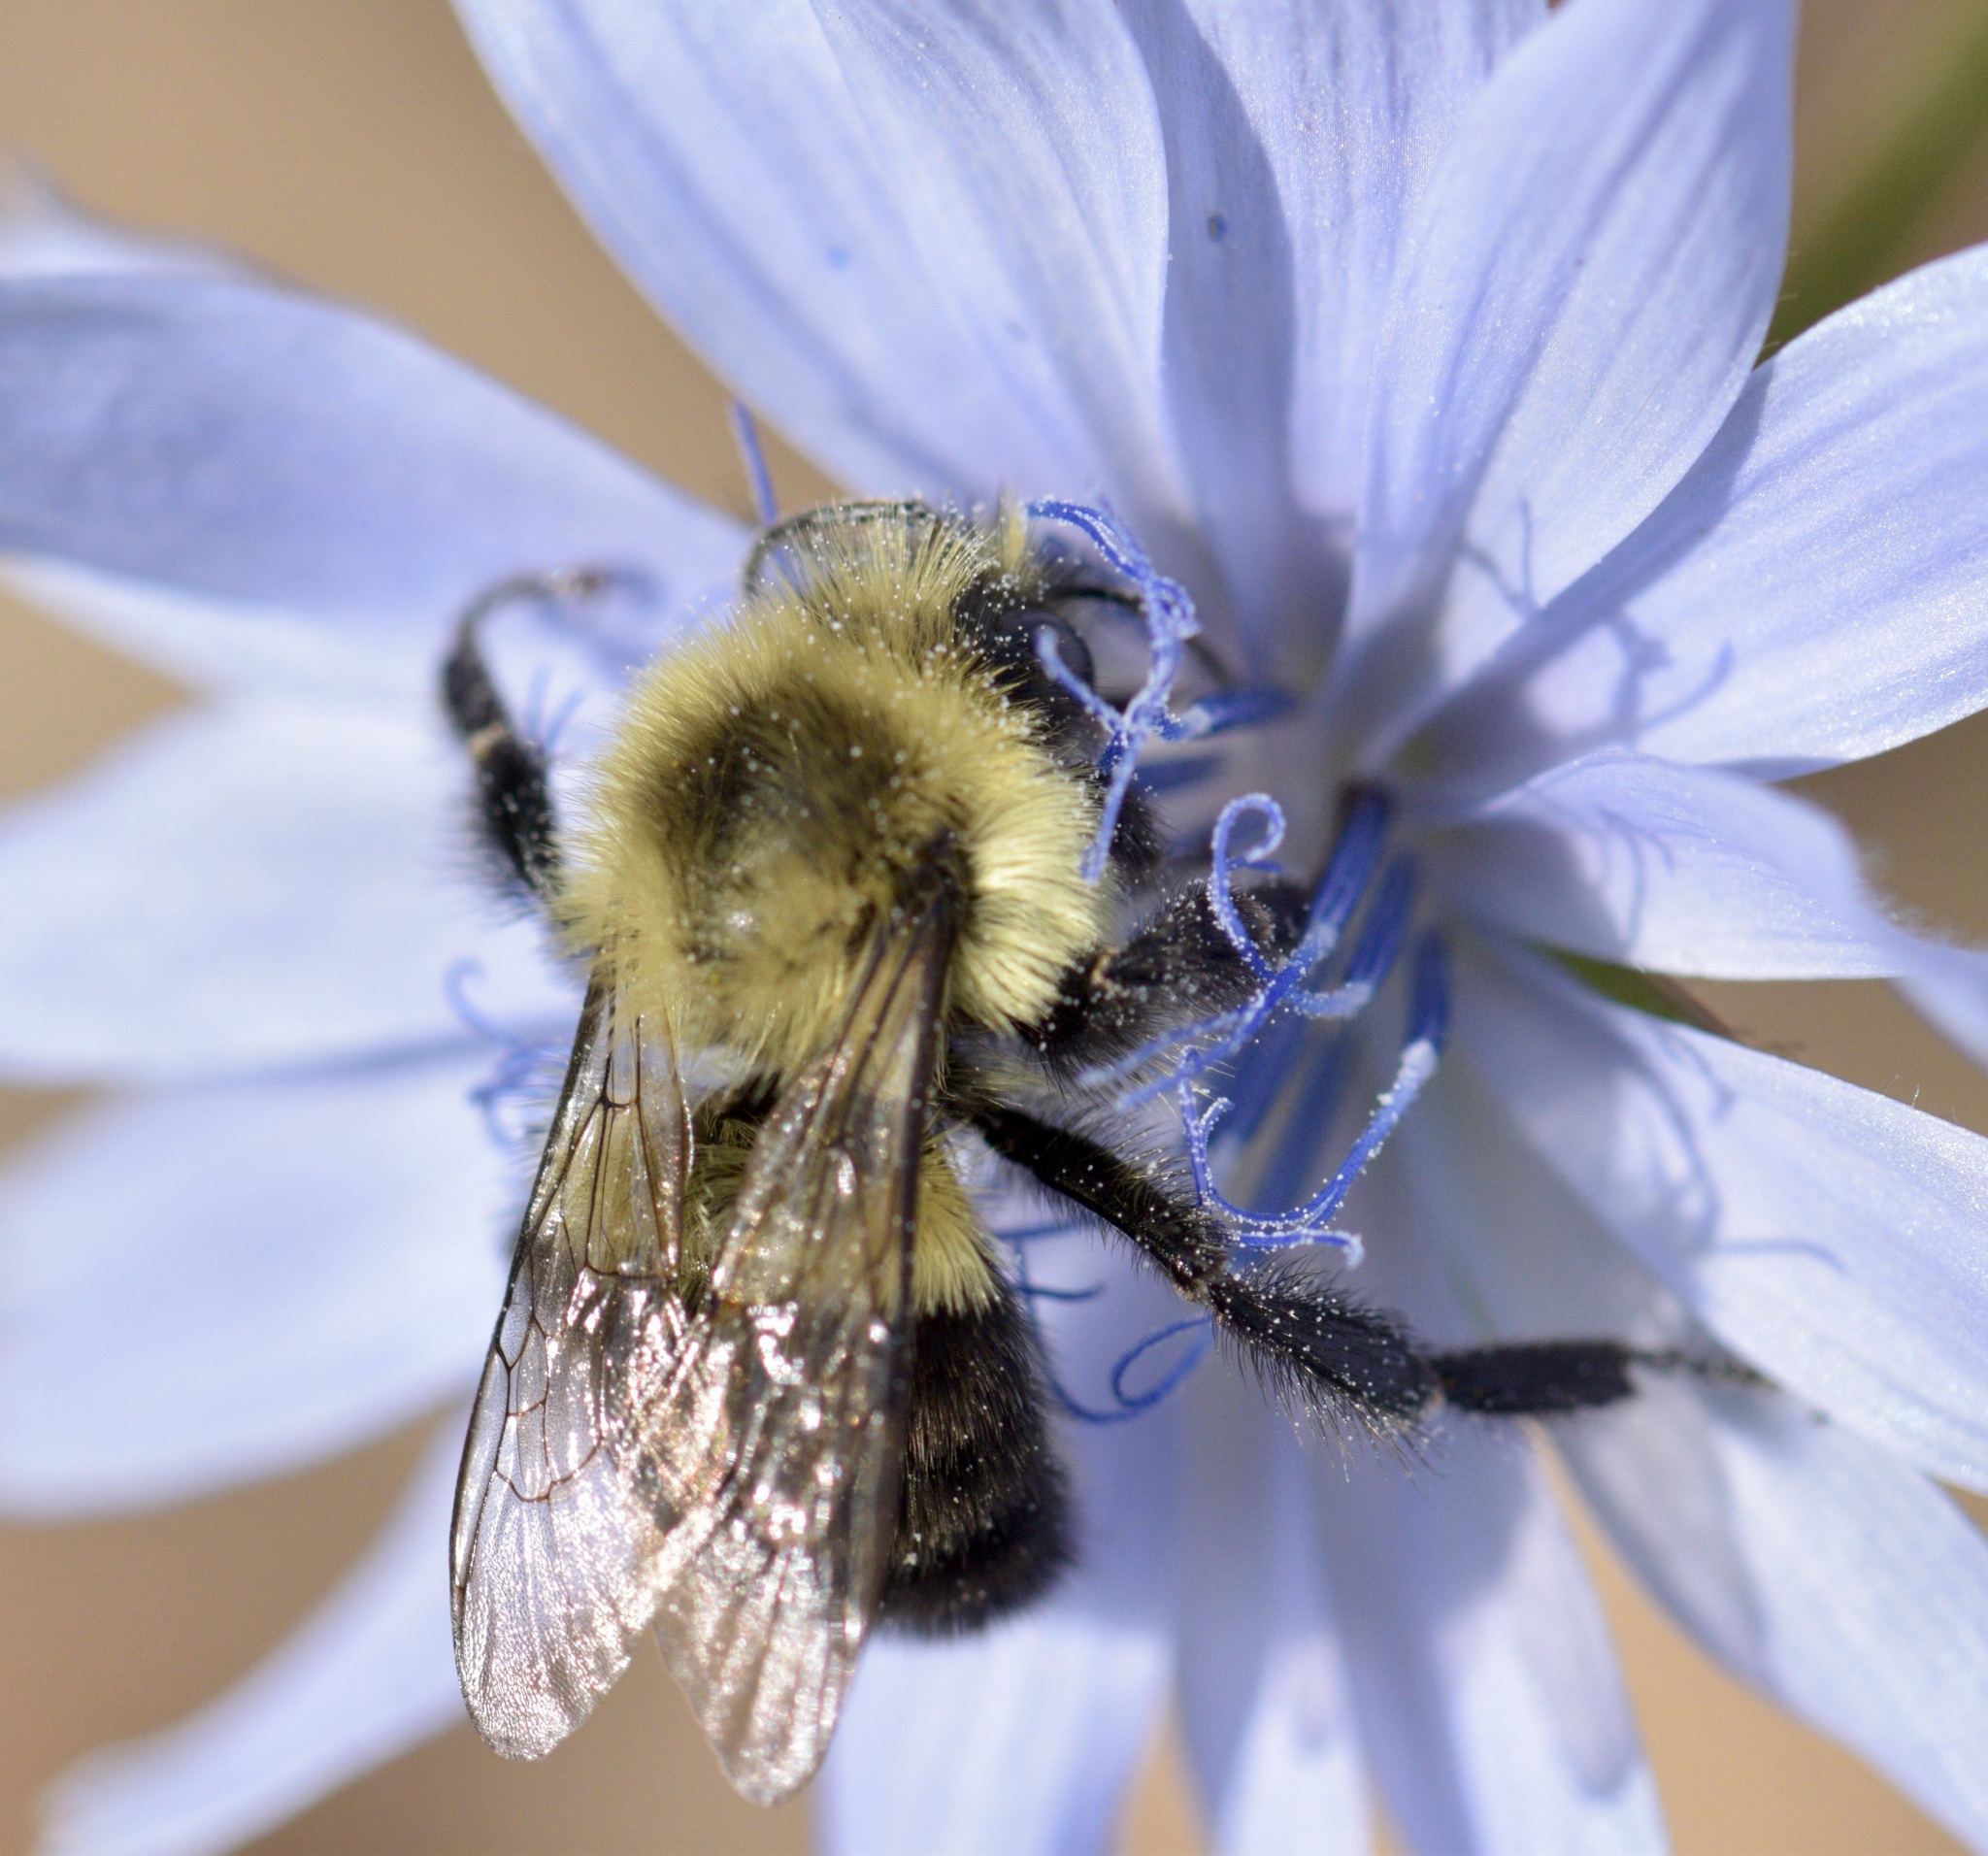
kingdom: Animalia
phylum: Arthropoda
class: Insecta
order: Hymenoptera
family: Apidae
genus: Bombus
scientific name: Bombus impatiens
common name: Common eastern bumble bee
